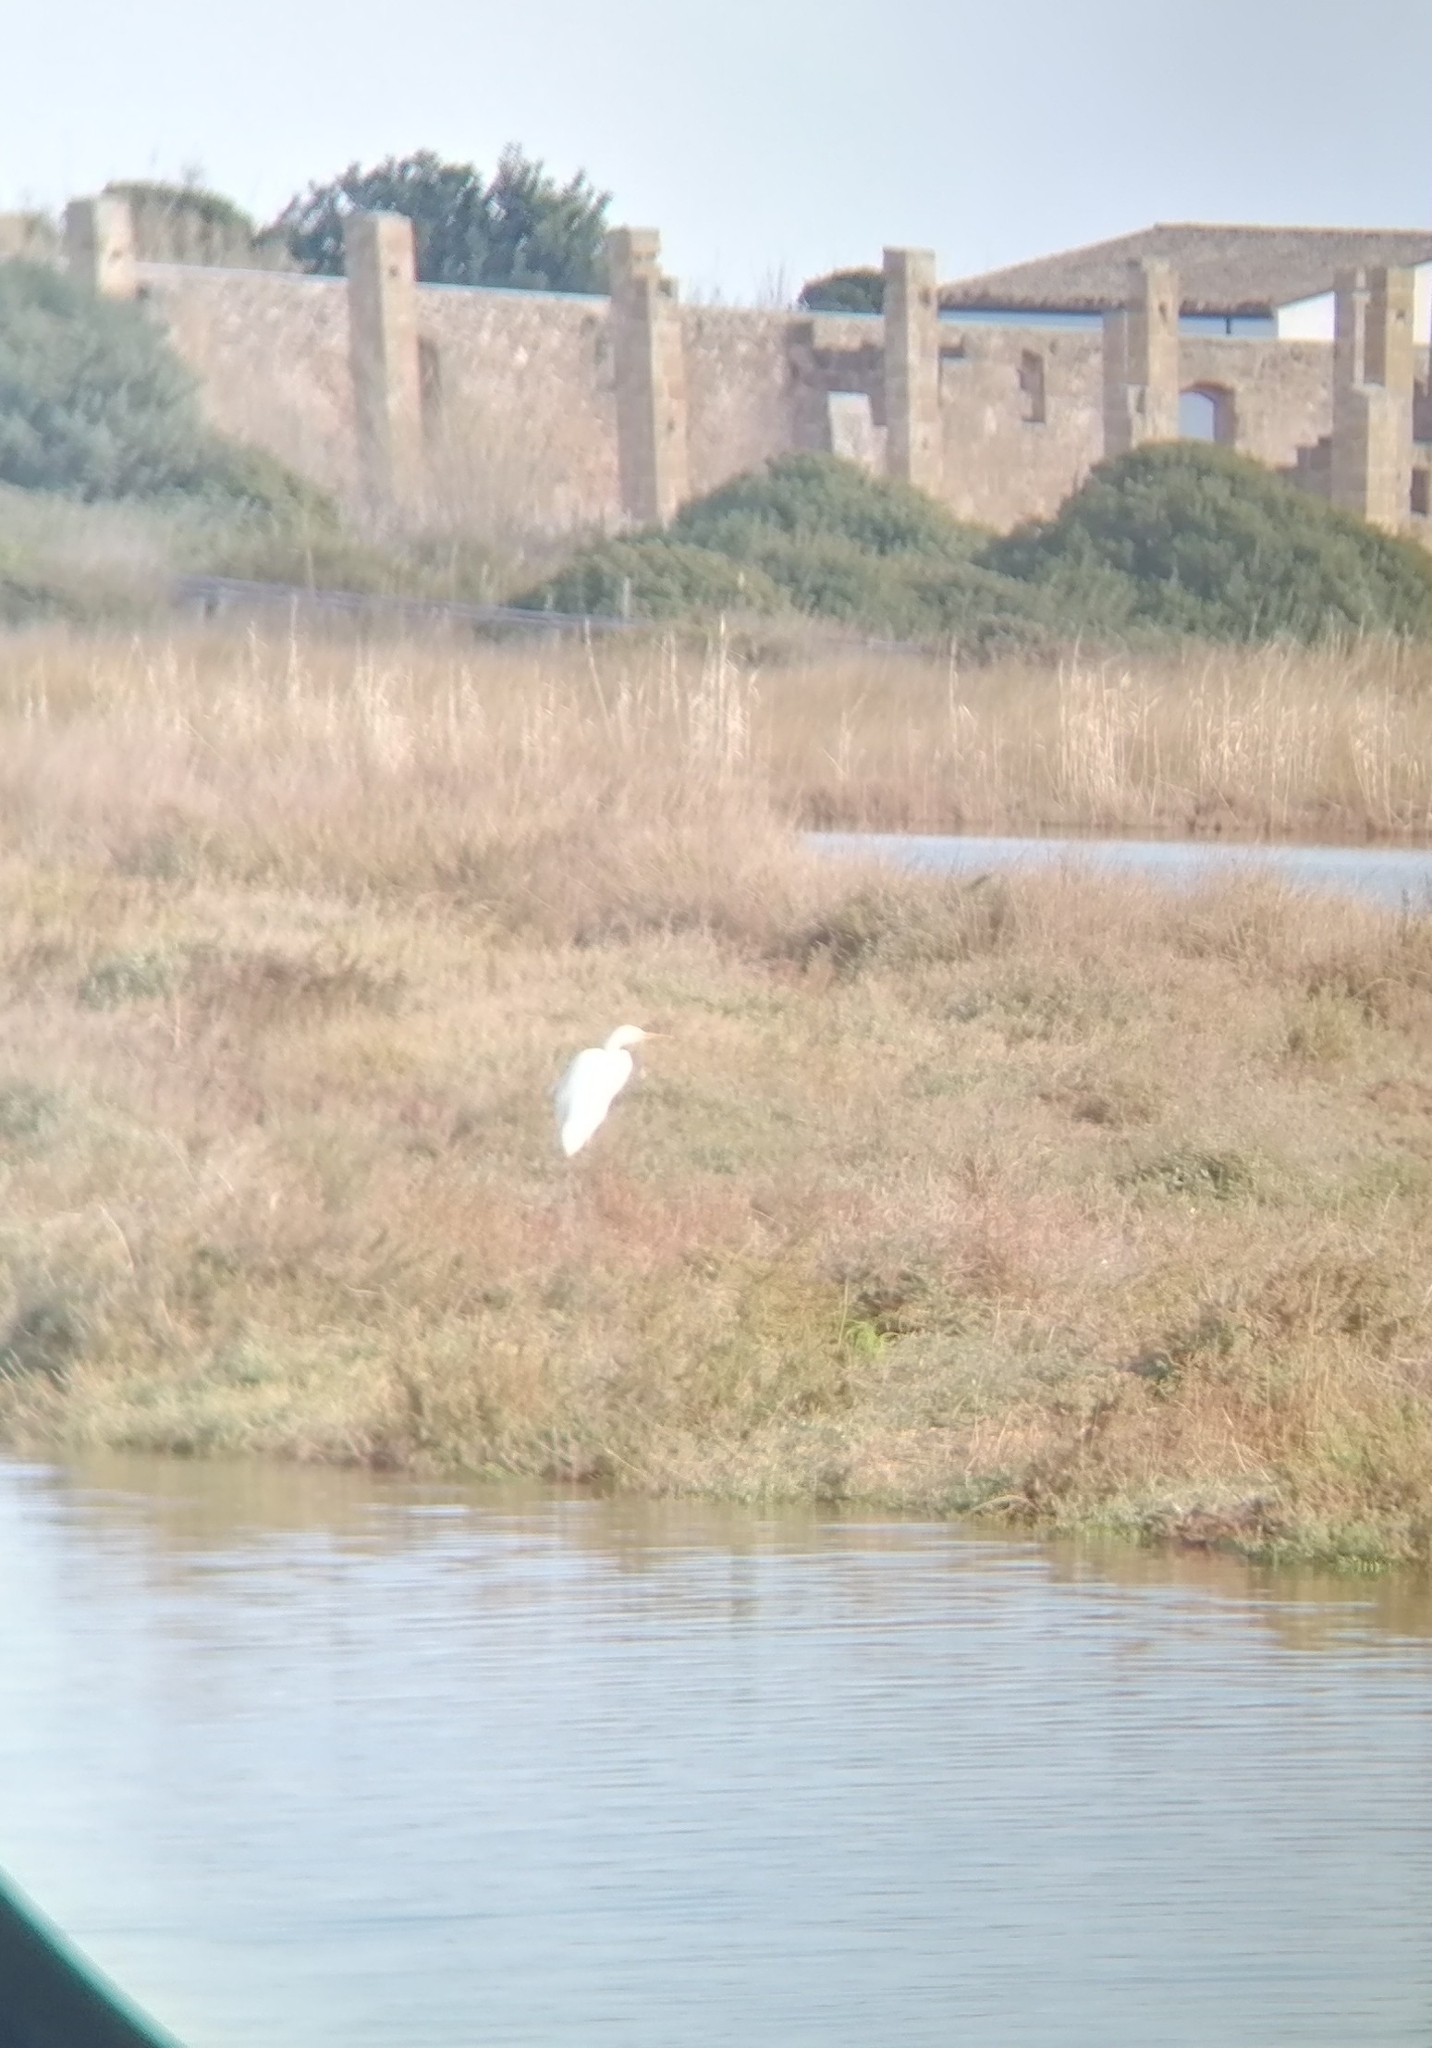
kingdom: Animalia
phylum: Chordata
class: Aves
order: Pelecaniformes
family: Ardeidae
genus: Ardea
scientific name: Ardea alba
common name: Great egret
